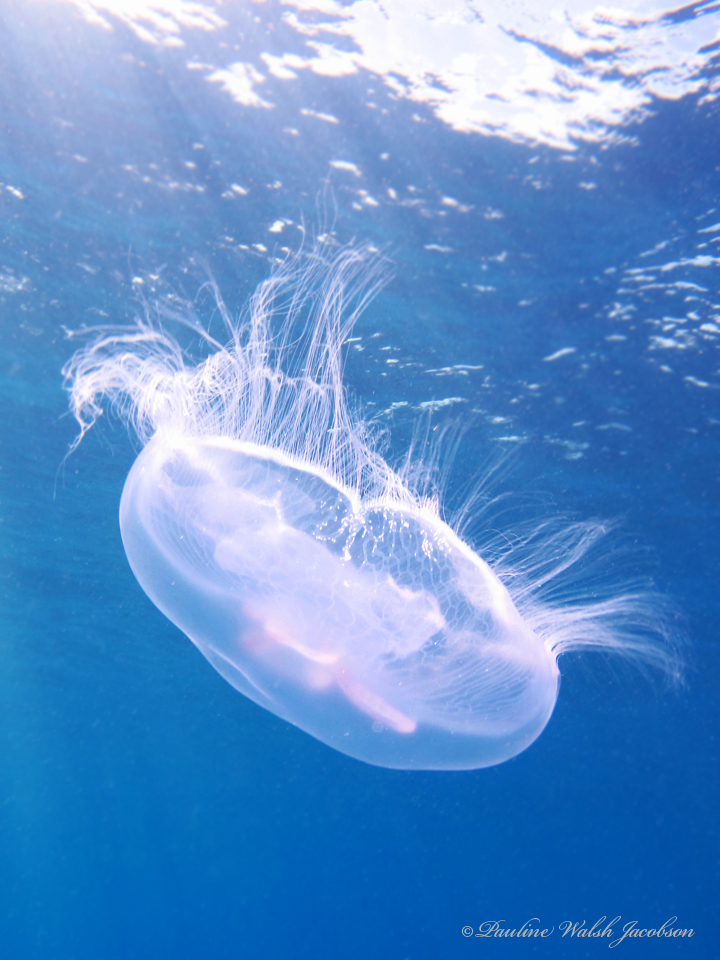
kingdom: Animalia
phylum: Cnidaria
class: Scyphozoa
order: Semaeostomeae
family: Ulmaridae
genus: Aurelia
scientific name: Aurelia marginalis
